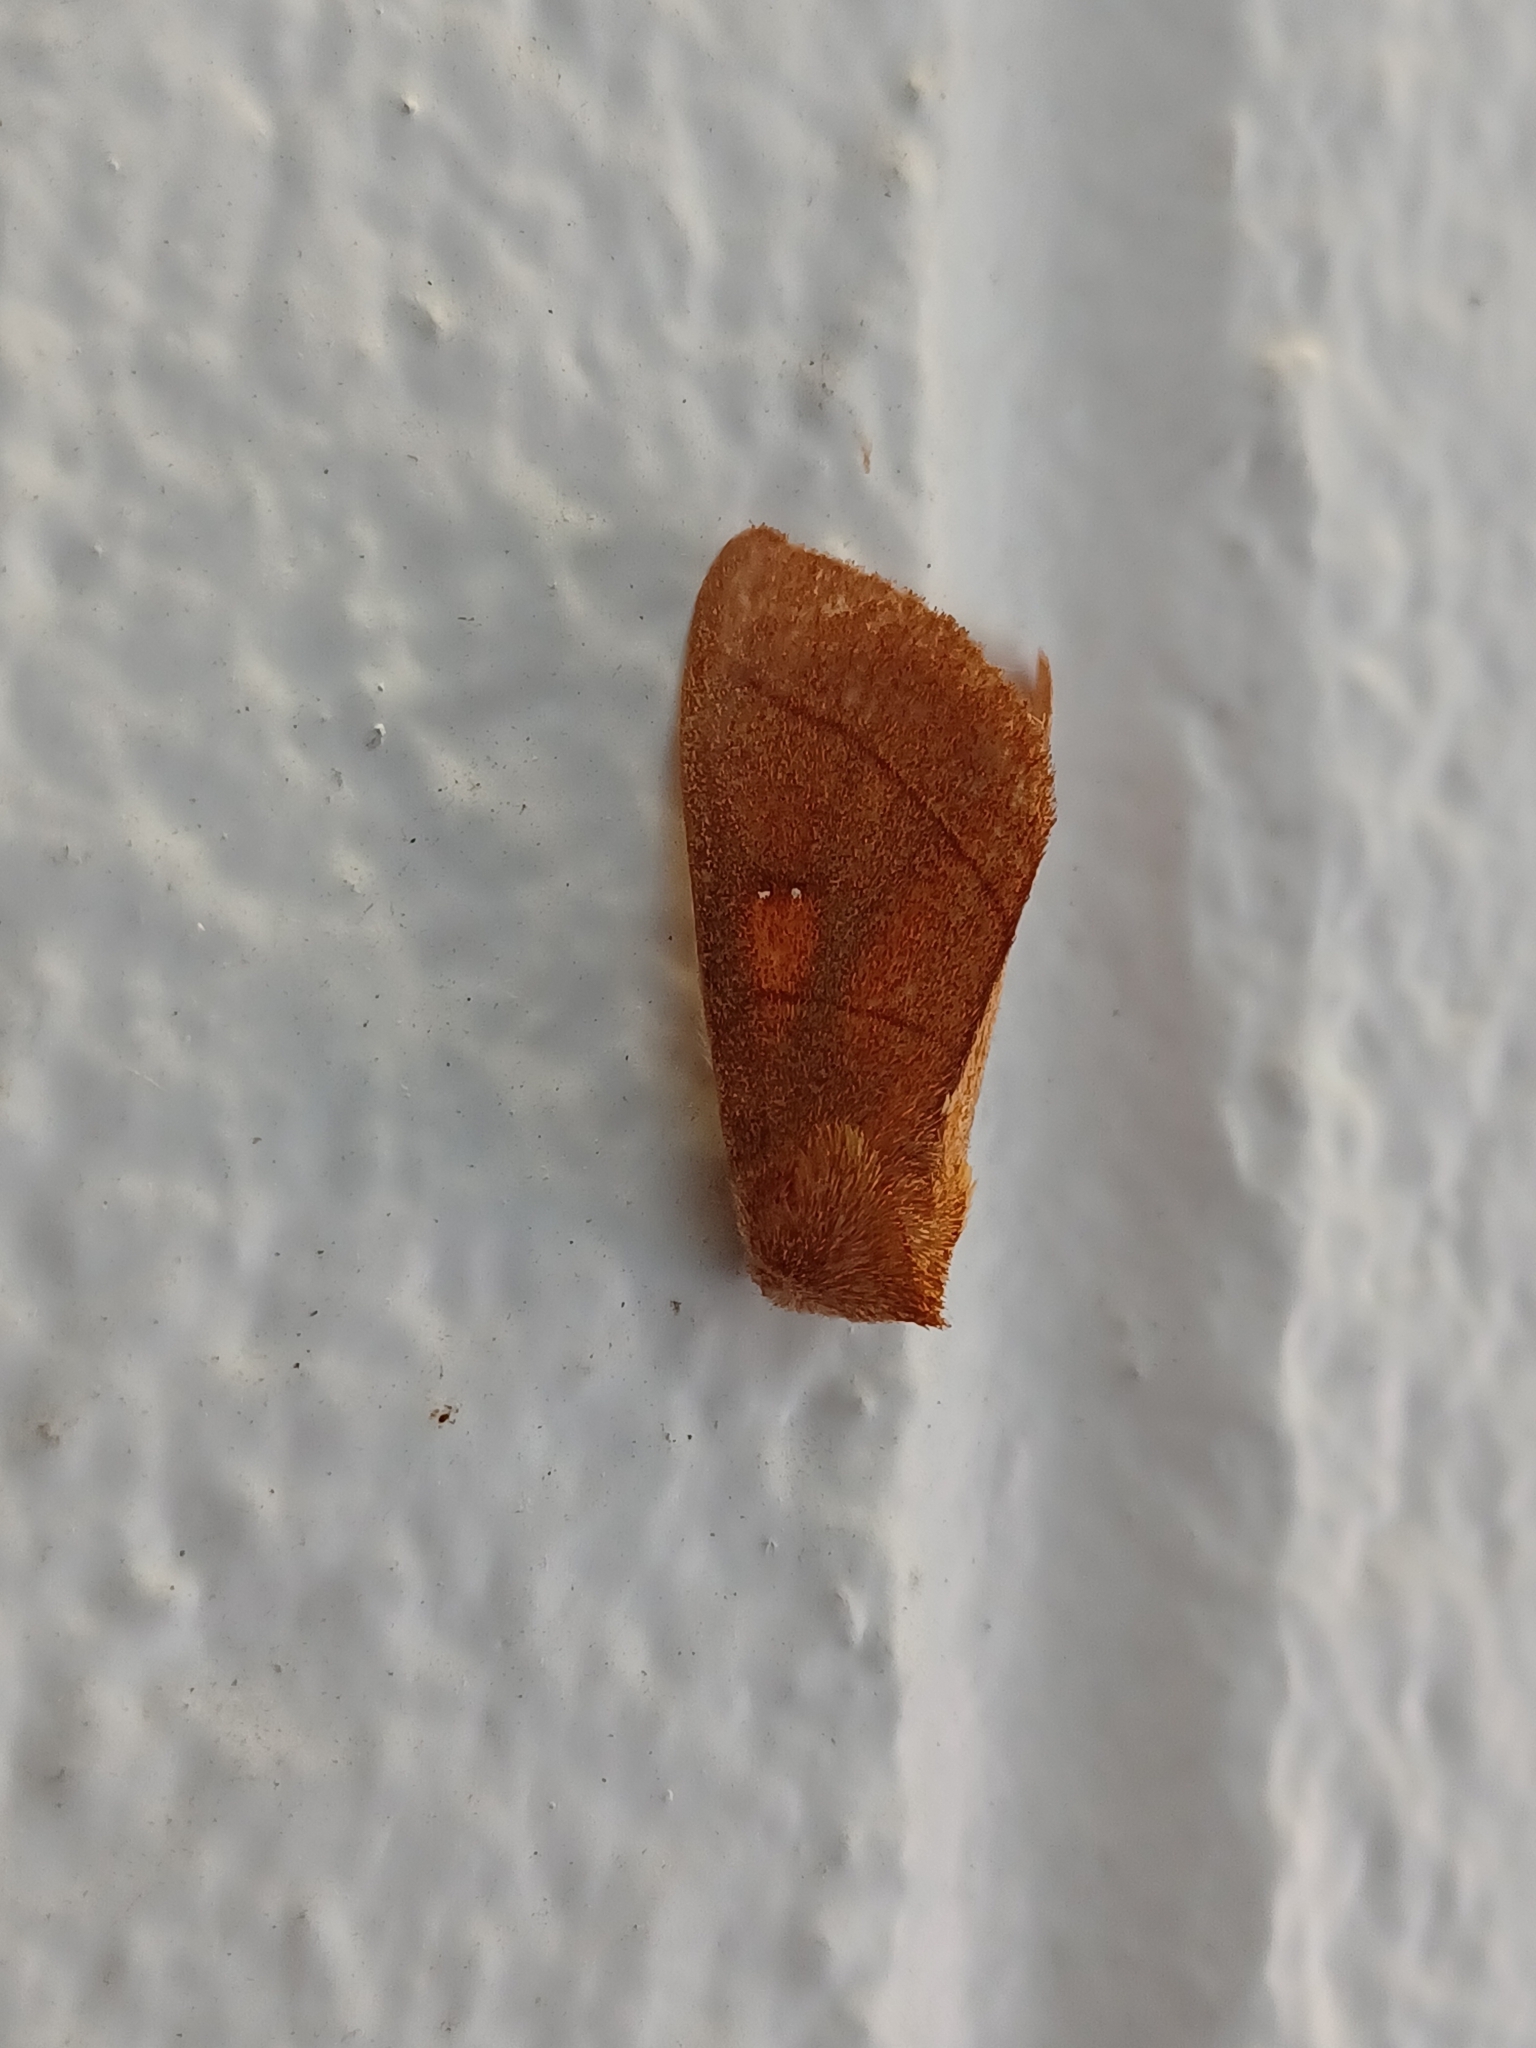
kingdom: Animalia
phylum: Arthropoda
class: Insecta
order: Lepidoptera
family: Notodontidae
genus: Nadata
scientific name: Nadata gibbosa
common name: White-dotted prominent
